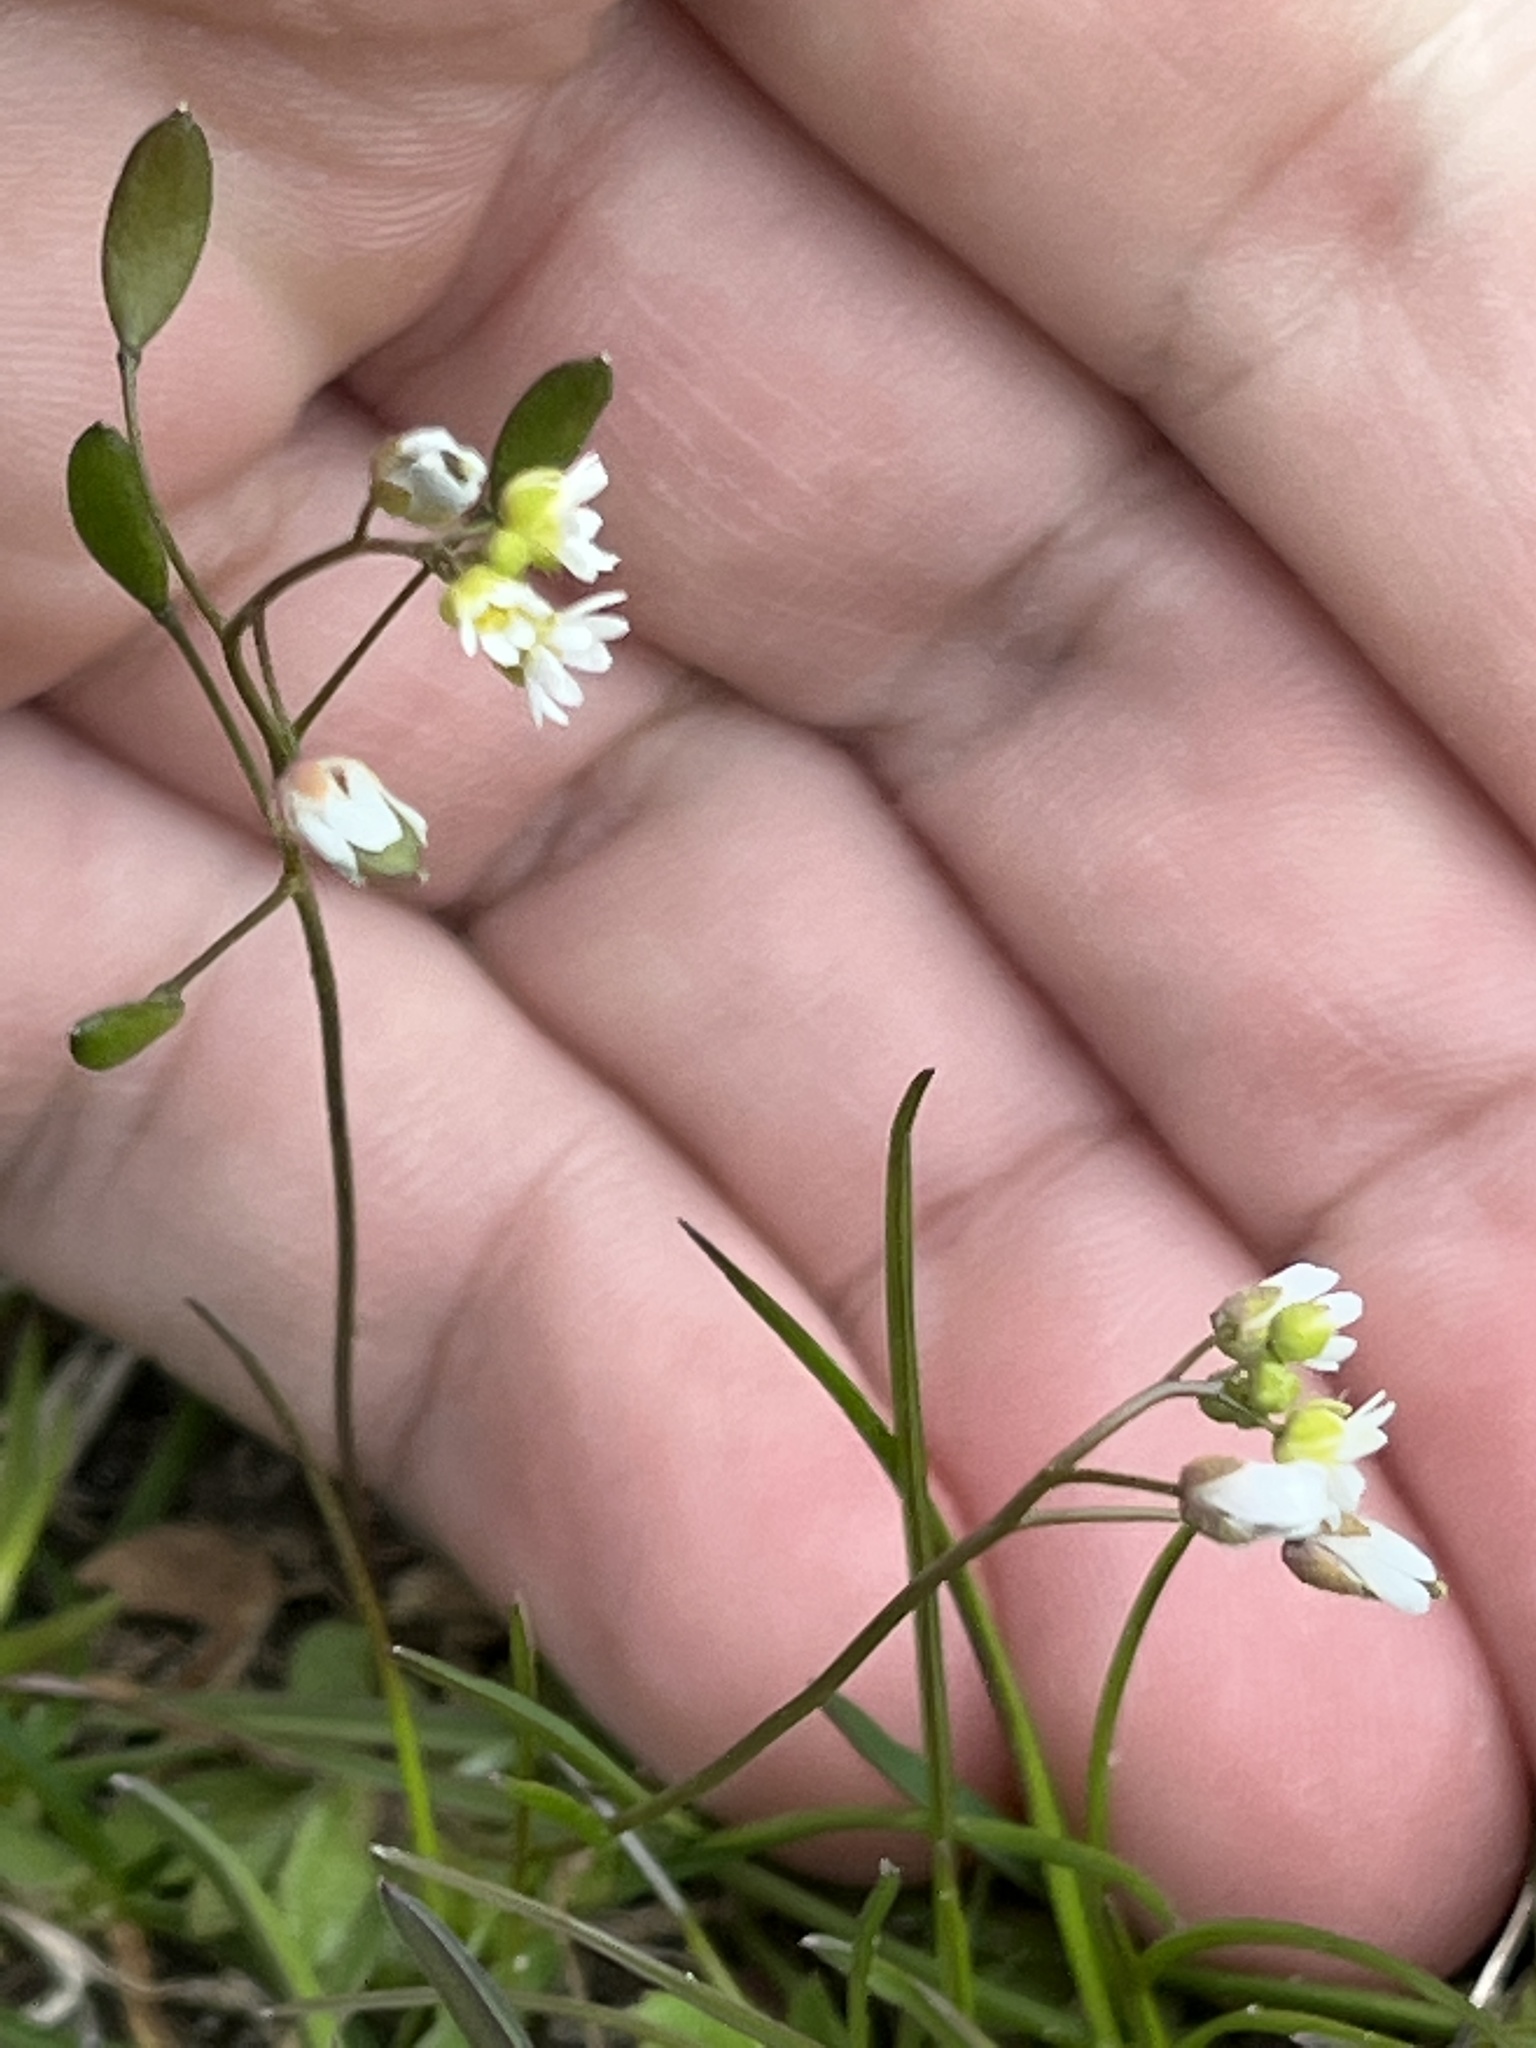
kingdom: Plantae
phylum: Tracheophyta
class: Magnoliopsida
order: Brassicales
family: Brassicaceae
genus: Draba
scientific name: Draba verna
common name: Spring draba
